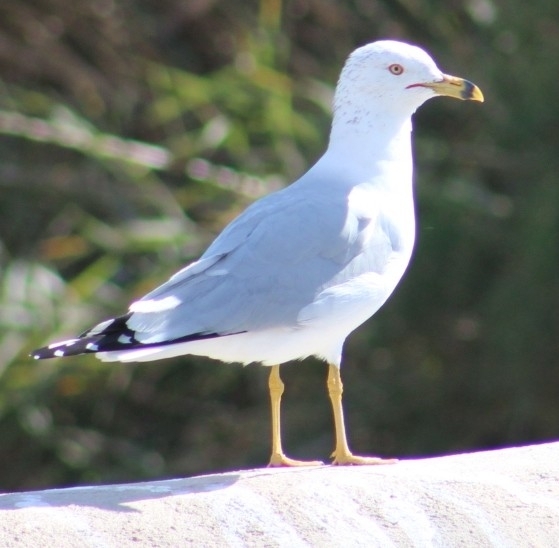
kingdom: Animalia
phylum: Chordata
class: Aves
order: Charadriiformes
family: Laridae
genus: Larus
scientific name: Larus delawarensis
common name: Ring-billed gull
